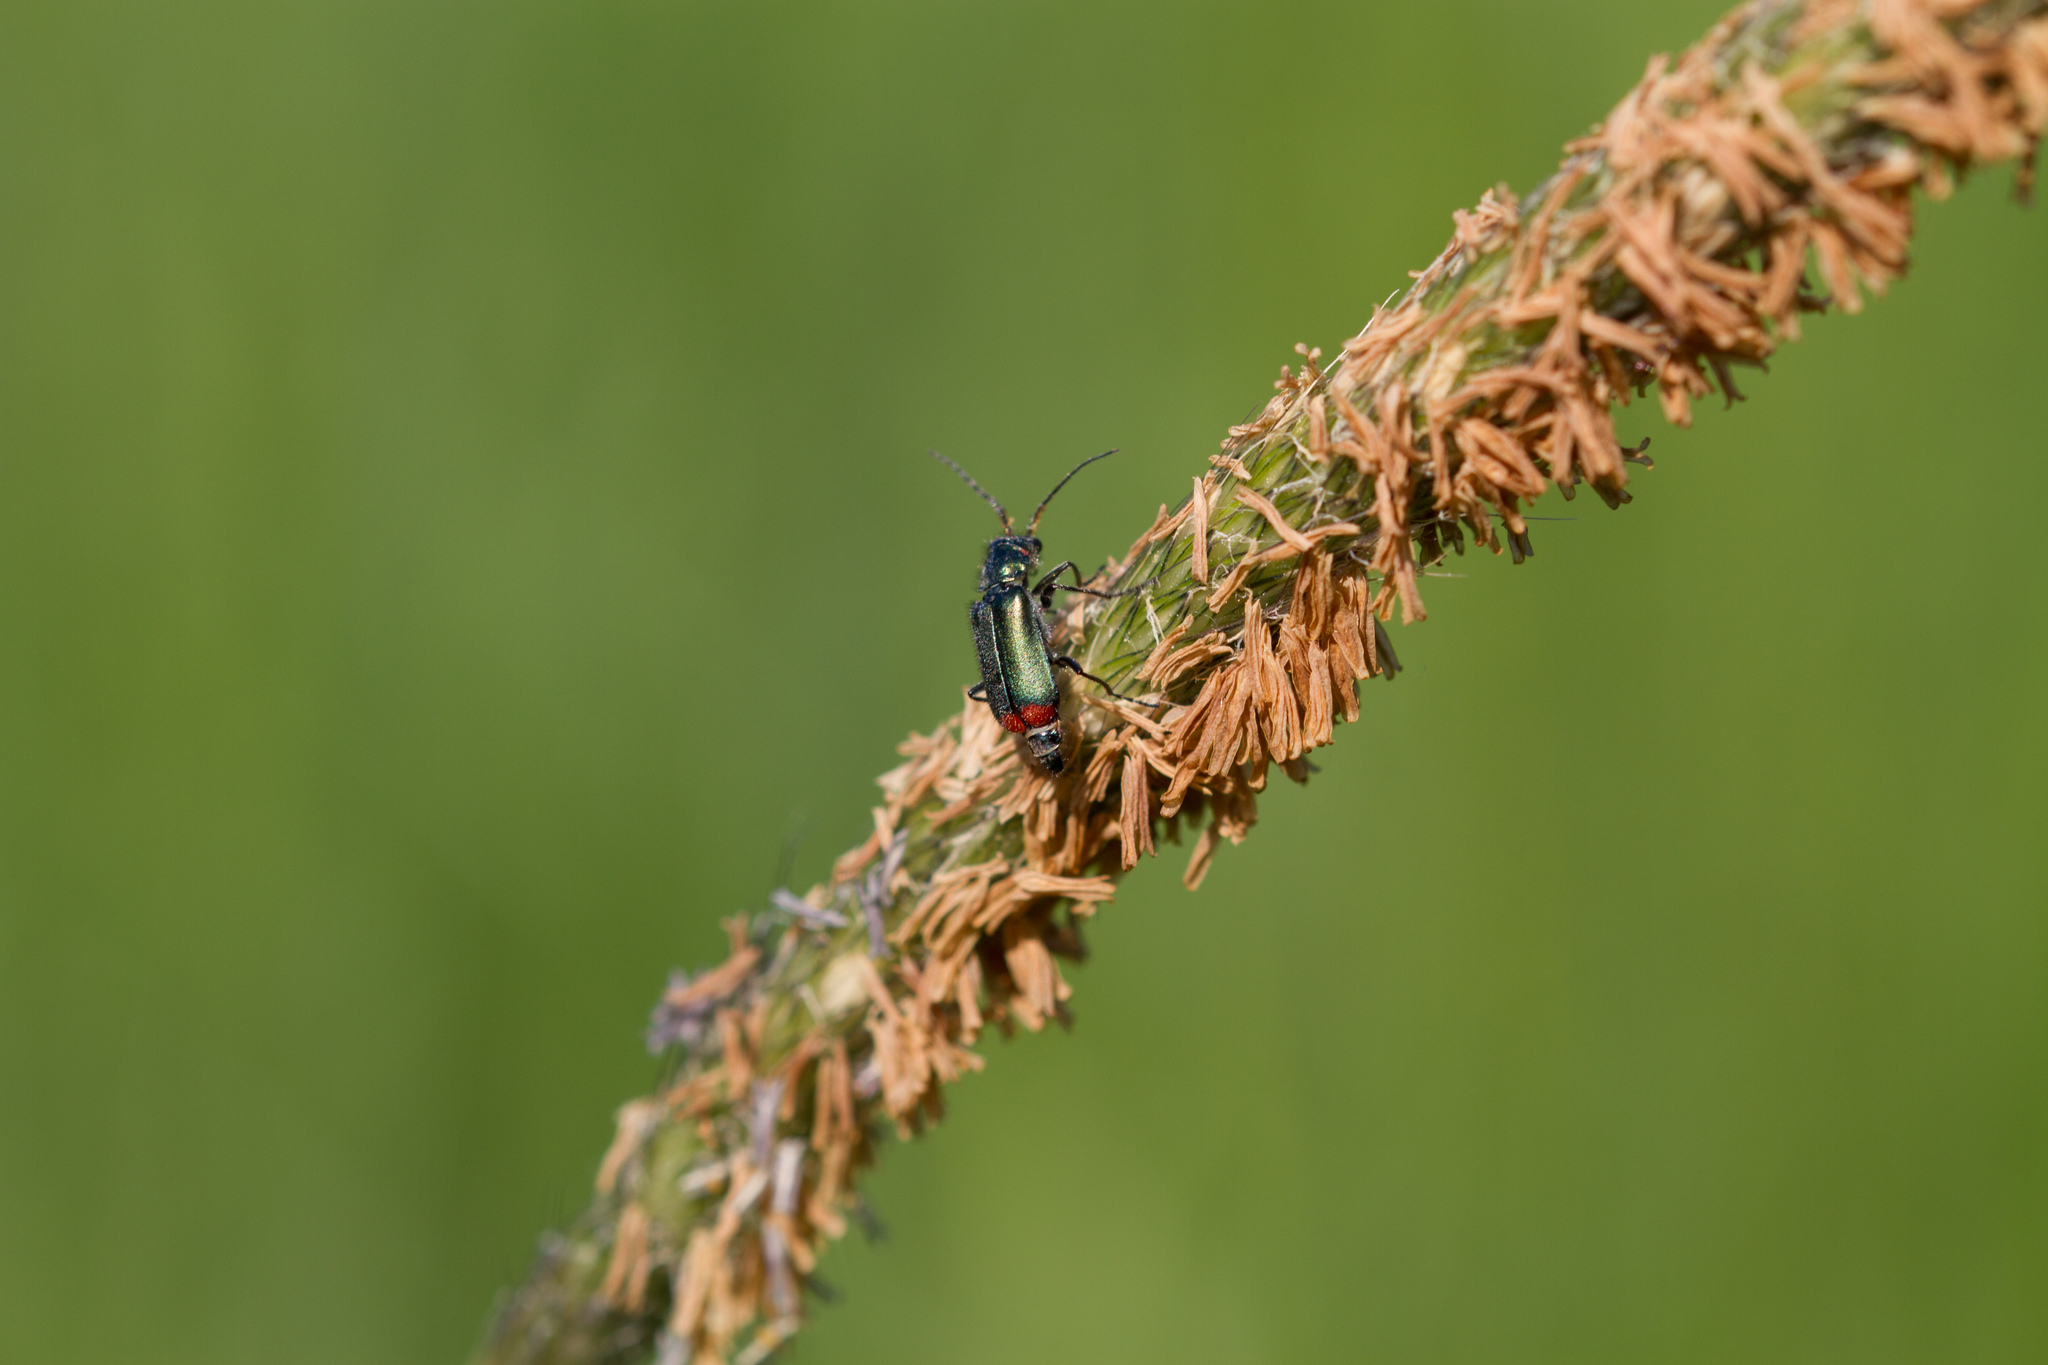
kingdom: Animalia
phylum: Arthropoda
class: Insecta
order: Coleoptera
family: Melyridae
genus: Malachius
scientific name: Malachius bipustulatus
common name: Malachite beetle
